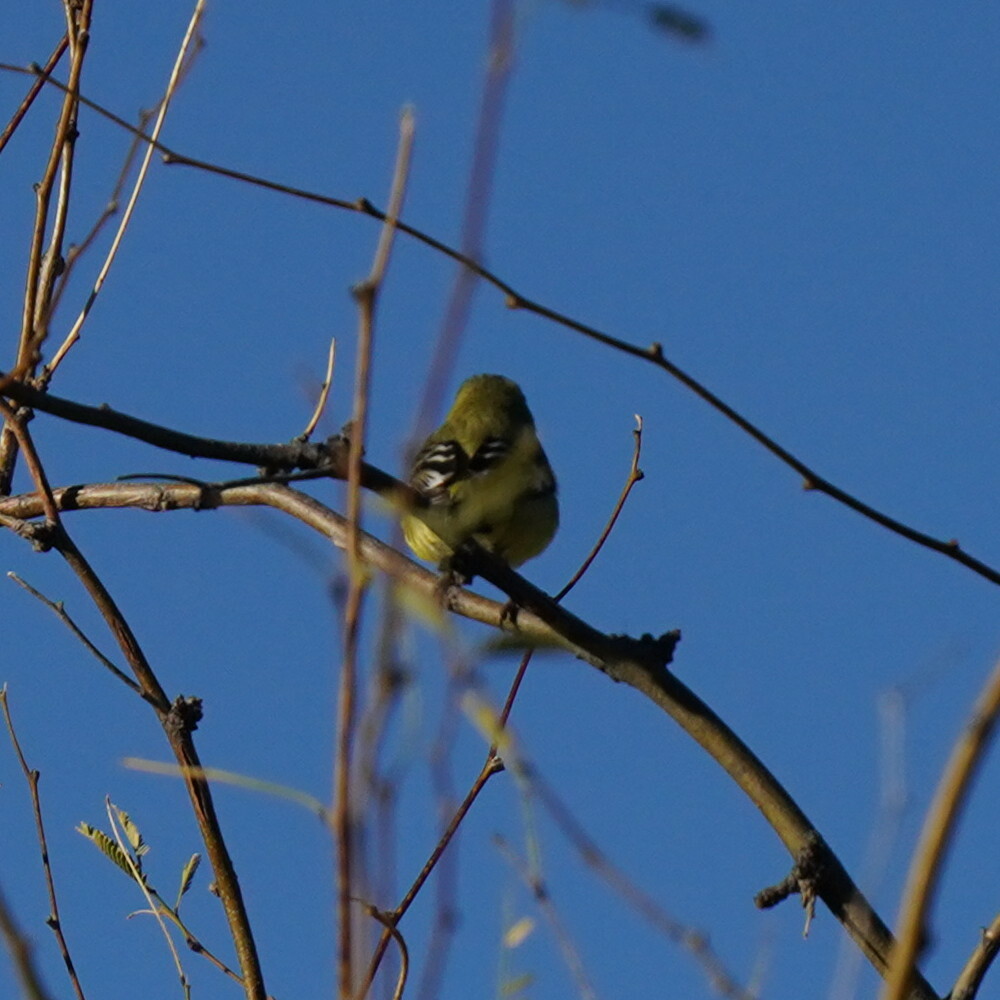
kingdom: Animalia
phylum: Chordata
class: Aves
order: Passeriformes
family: Fringillidae
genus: Spinus
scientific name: Spinus psaltria
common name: Lesser goldfinch
